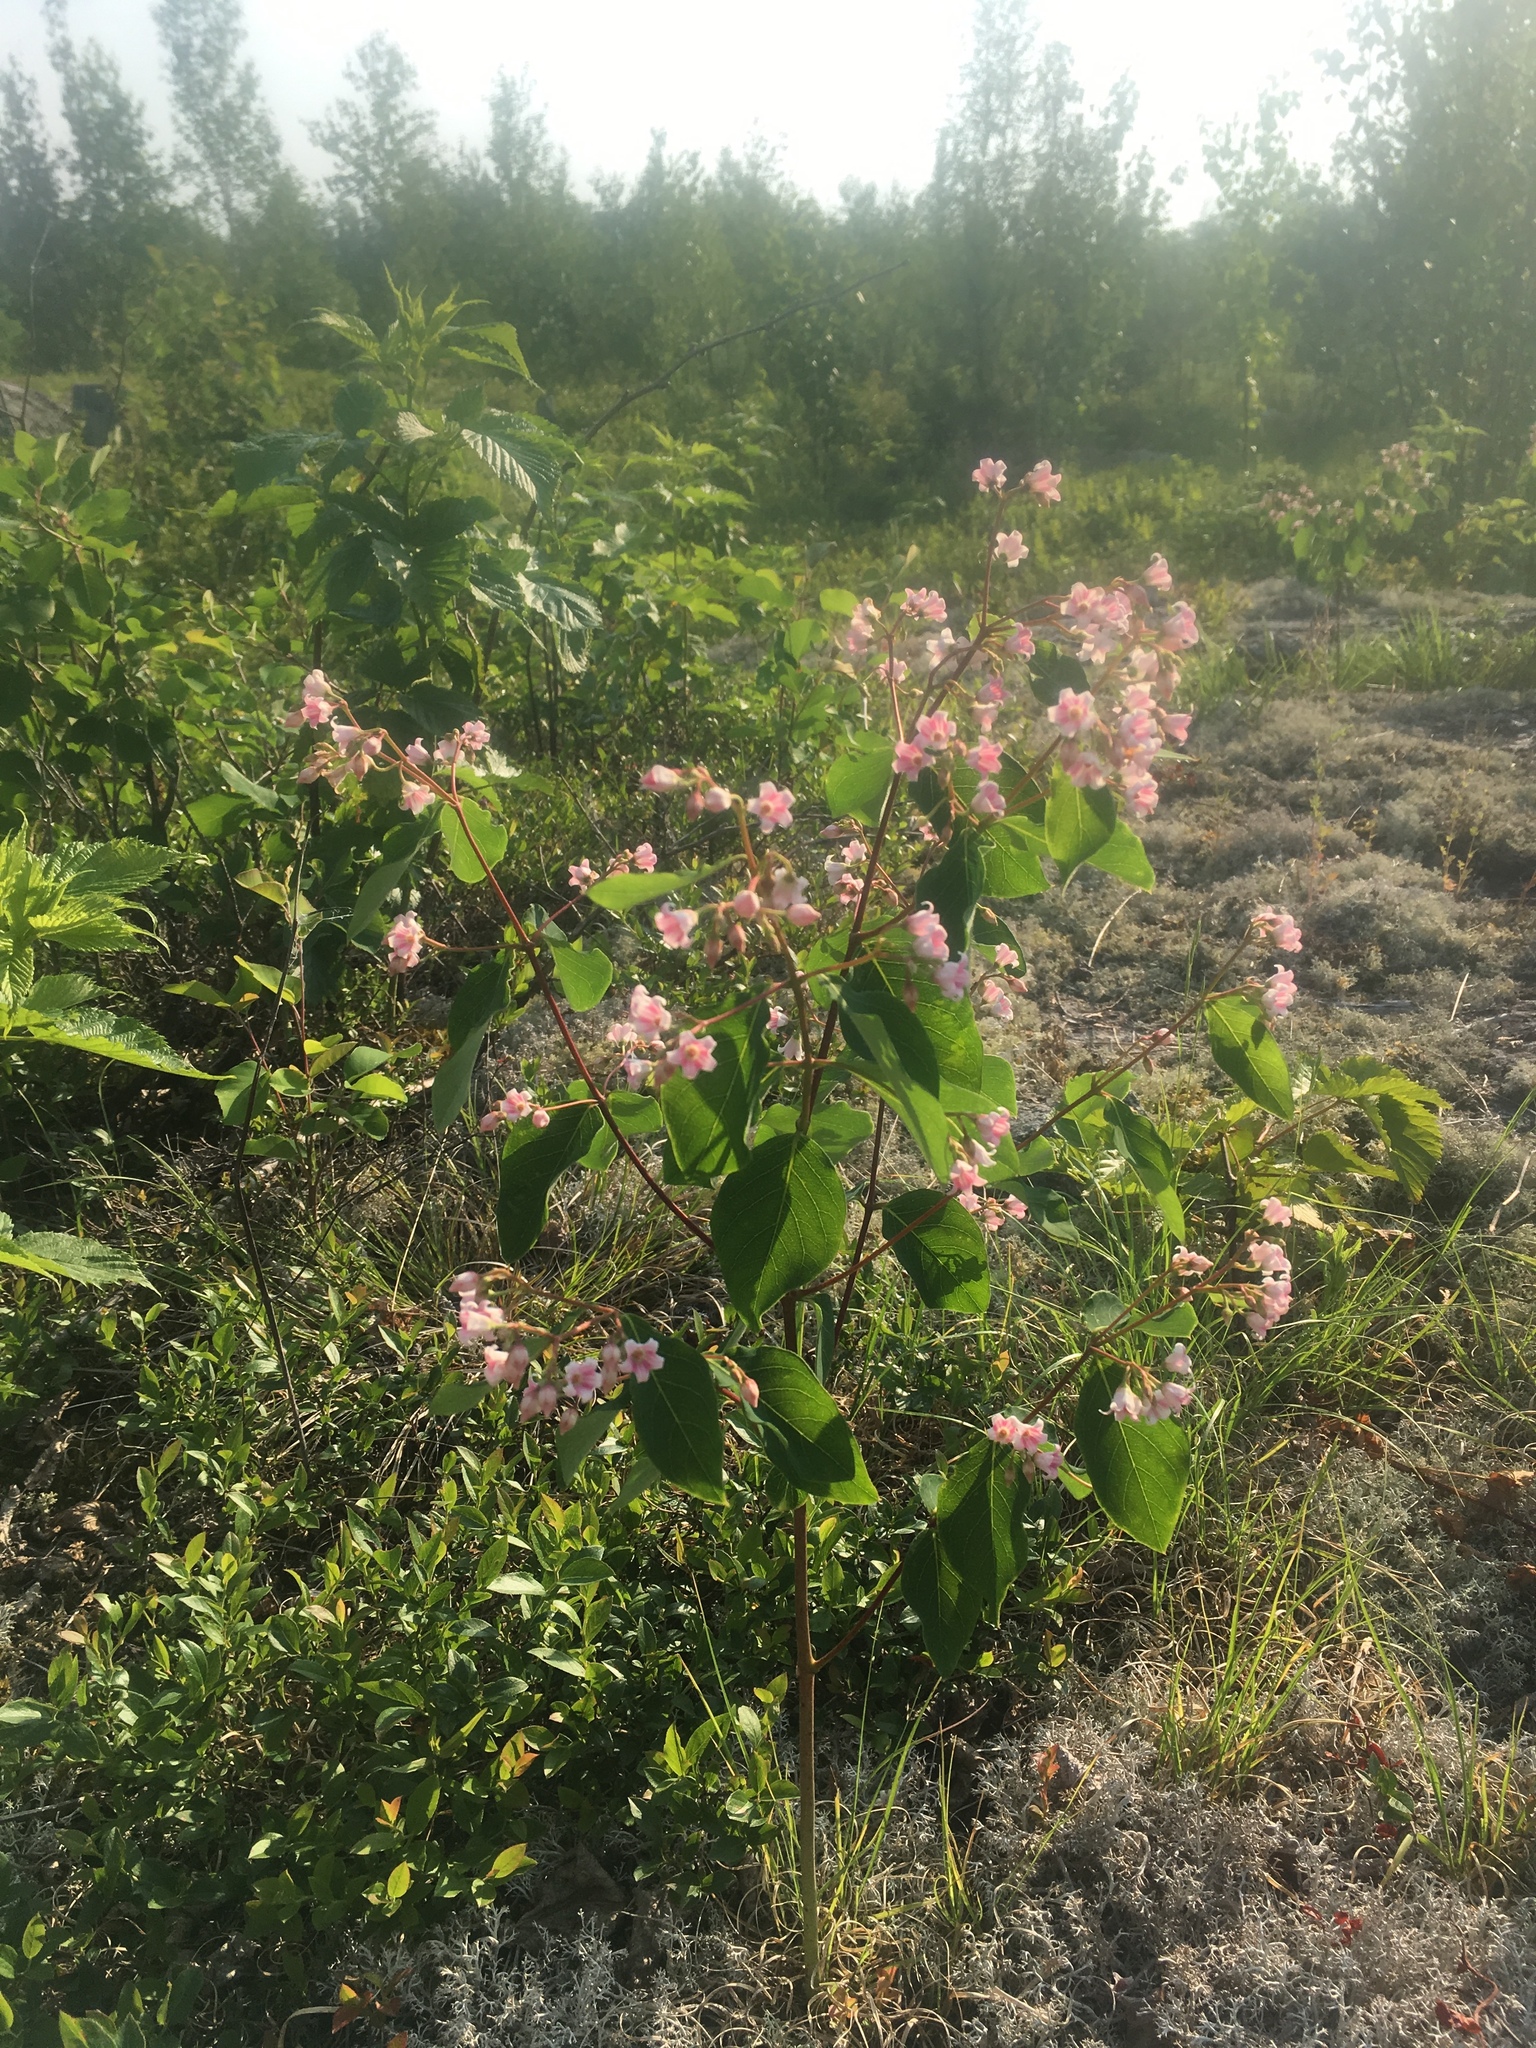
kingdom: Plantae
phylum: Tracheophyta
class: Magnoliopsida
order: Gentianales
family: Apocynaceae
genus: Apocynum
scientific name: Apocynum androsaemifolium
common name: Spreading dogbane
